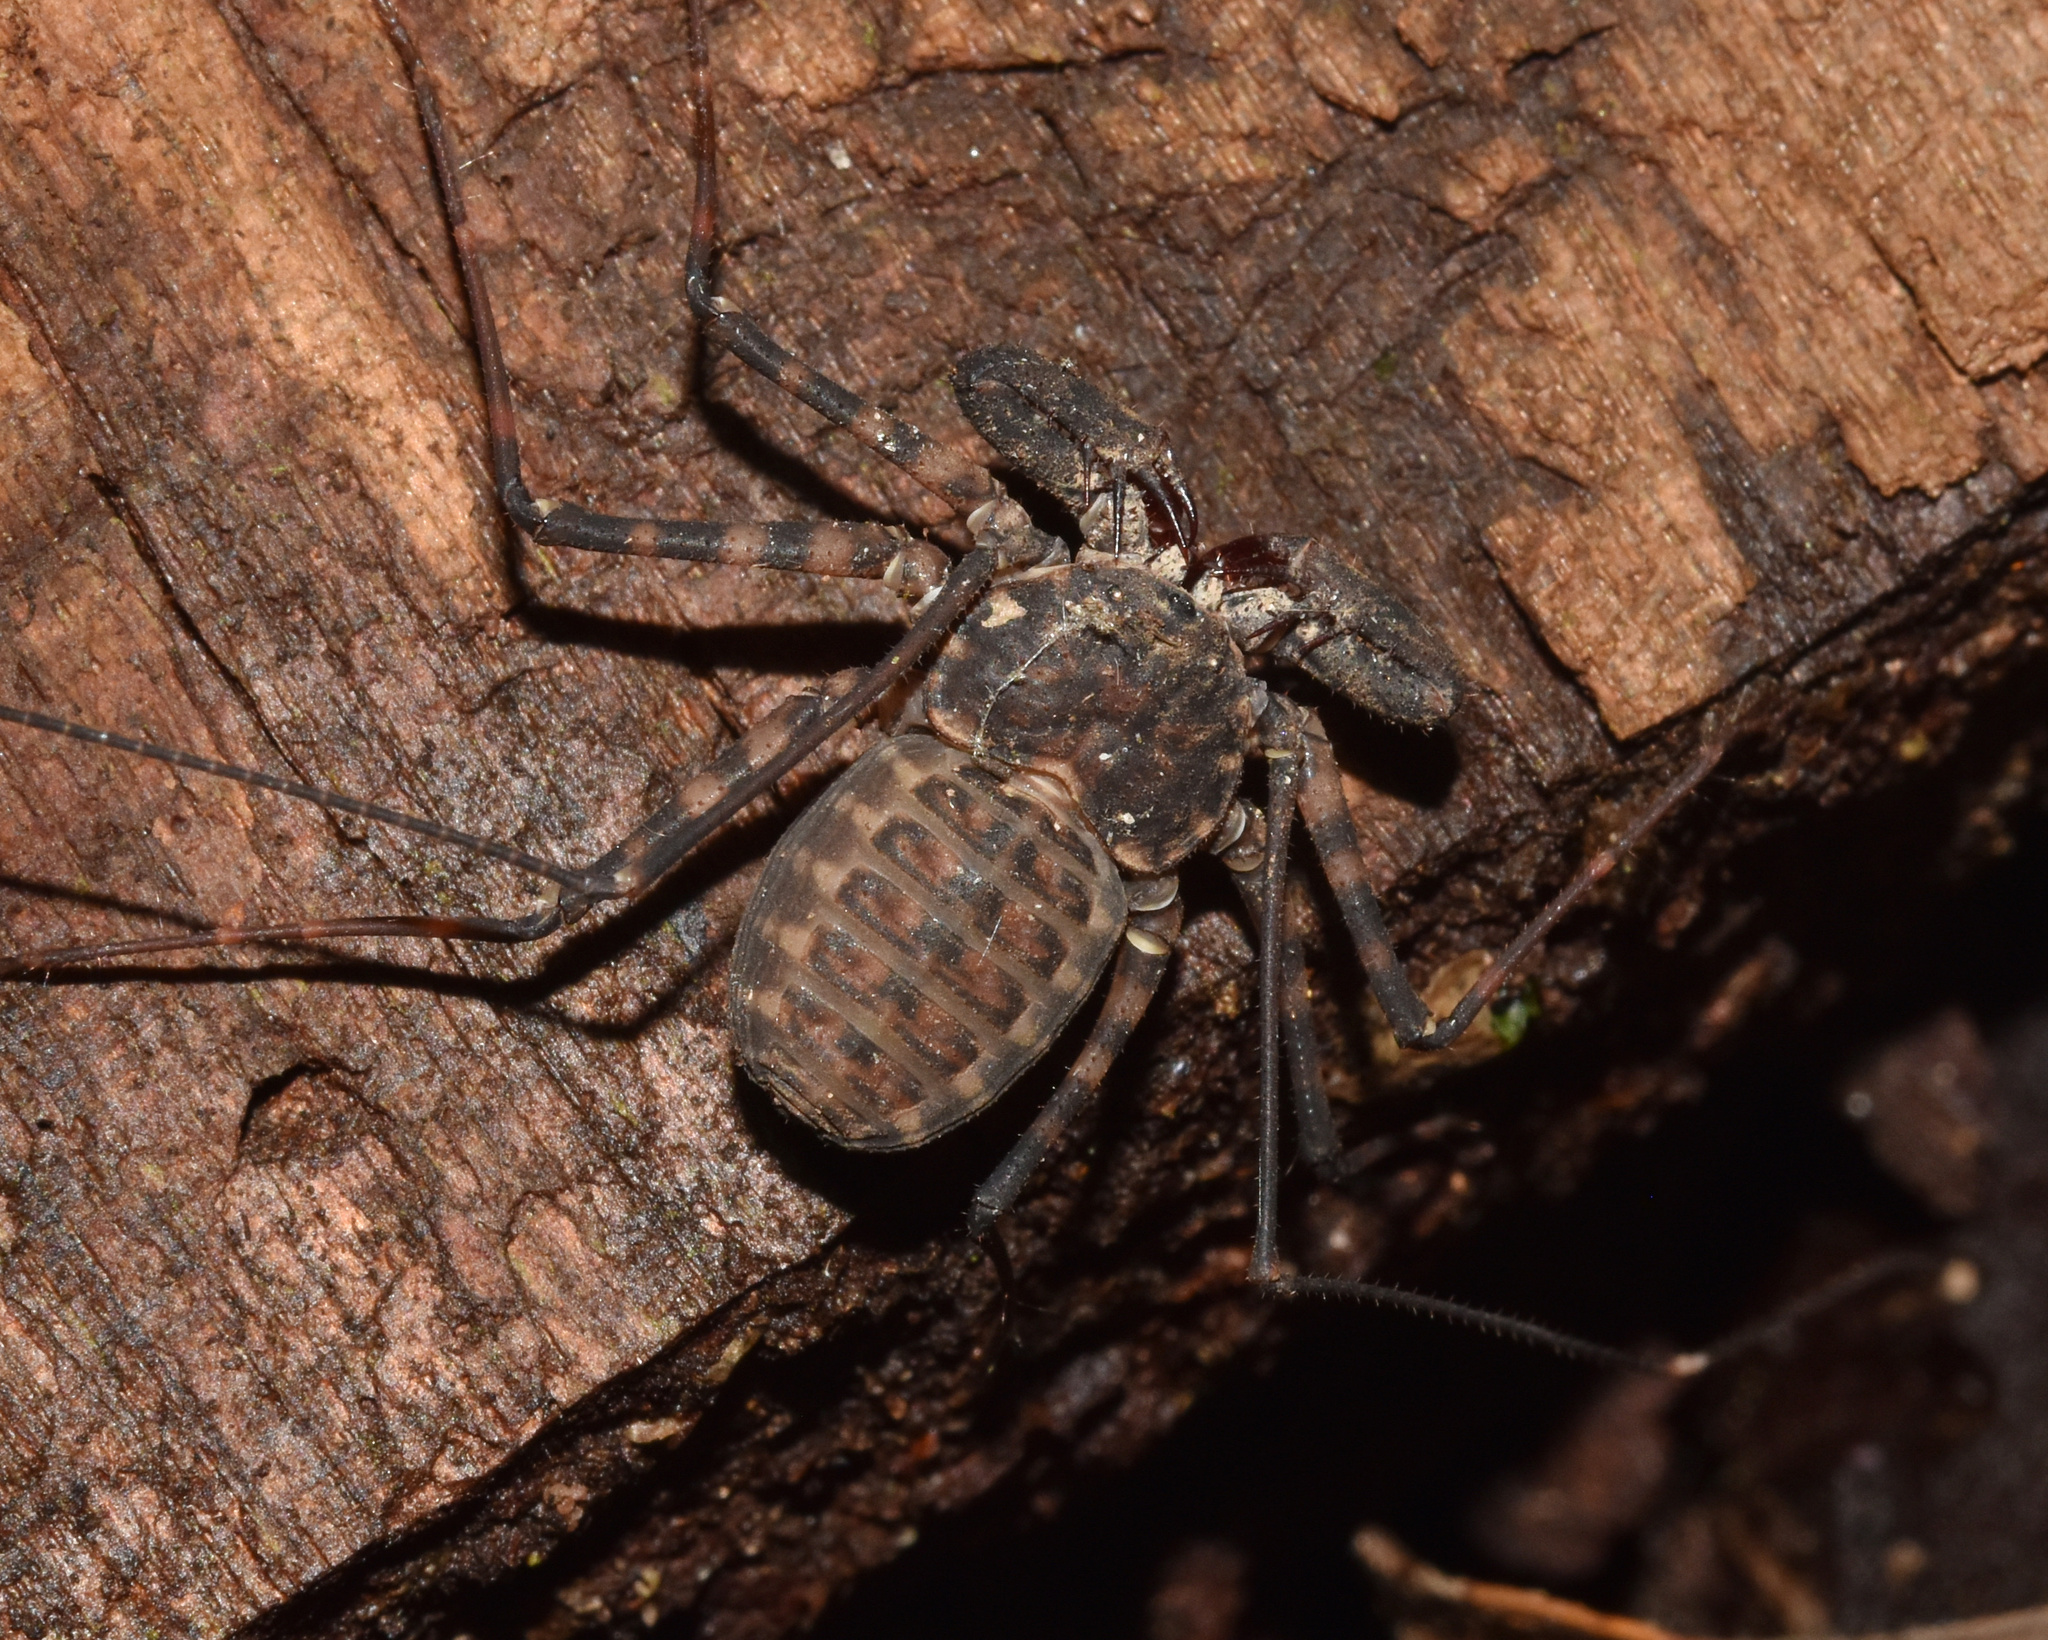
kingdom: Animalia
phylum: Arthropoda
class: Arachnida
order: Amblypygi
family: Phrynichidae
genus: Damon
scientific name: Damon annulatipes
